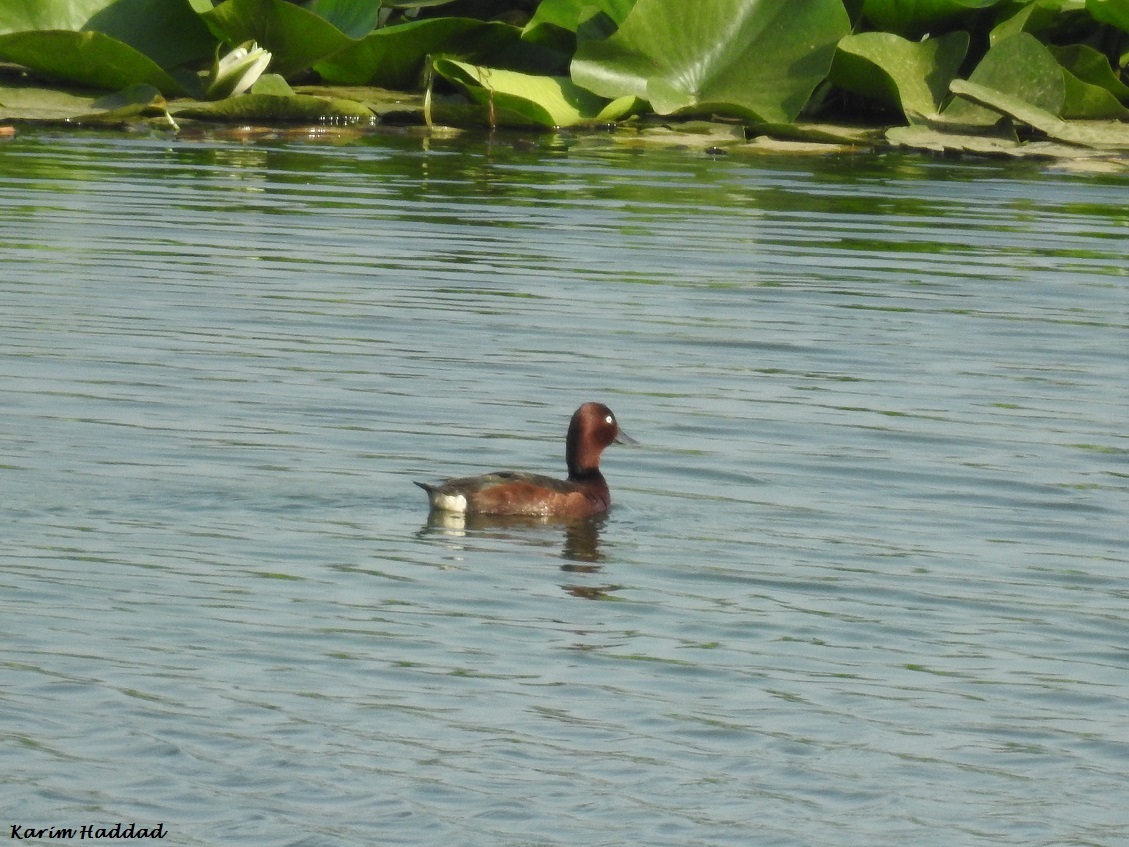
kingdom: Animalia
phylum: Chordata
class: Aves
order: Anseriformes
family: Anatidae
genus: Aythya
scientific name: Aythya nyroca
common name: Ferruginous duck
